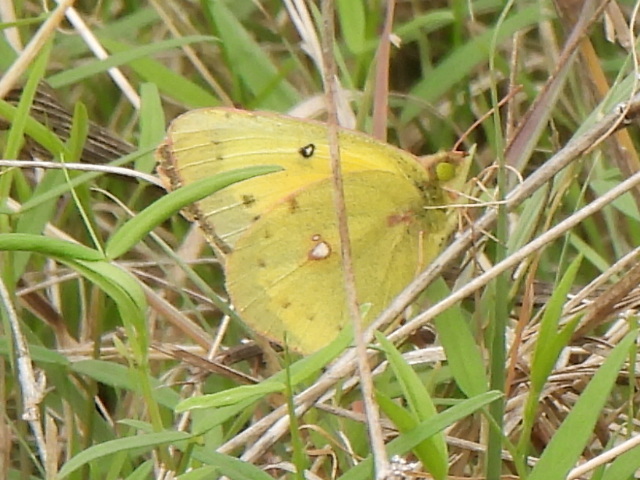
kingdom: Animalia
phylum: Arthropoda
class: Insecta
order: Lepidoptera
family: Pieridae
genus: Colias
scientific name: Colias eurytheme
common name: Alfalfa butterfly
